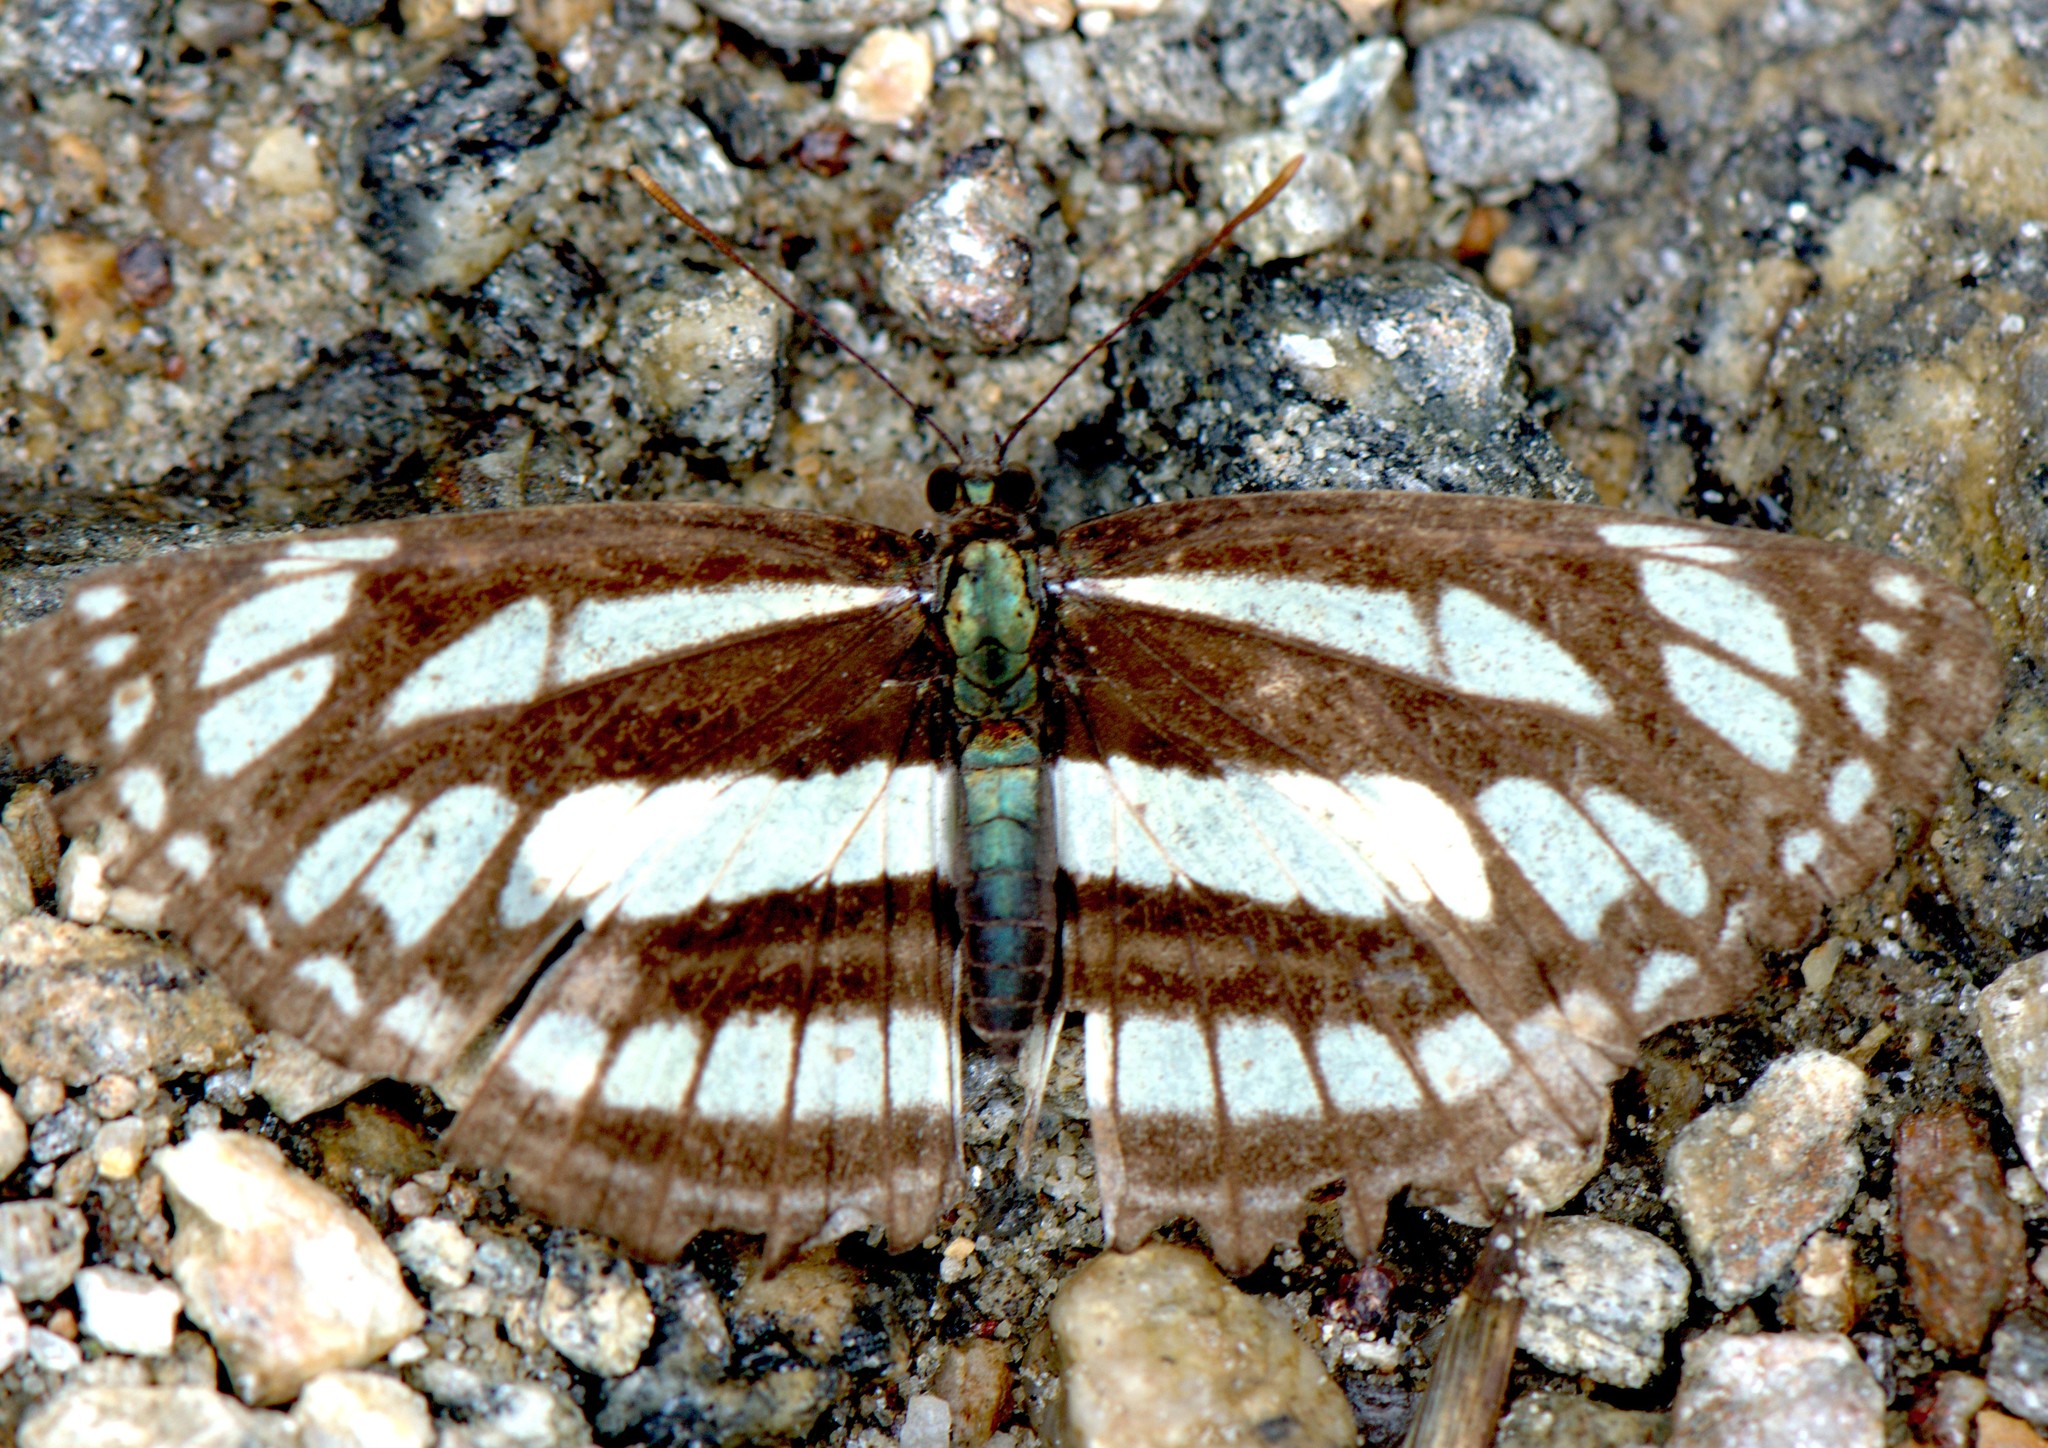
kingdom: Animalia
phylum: Arthropoda
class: Insecta
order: Lepidoptera
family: Nymphalidae
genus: Neptis
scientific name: Neptis soma
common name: Cream-spotted sailor
